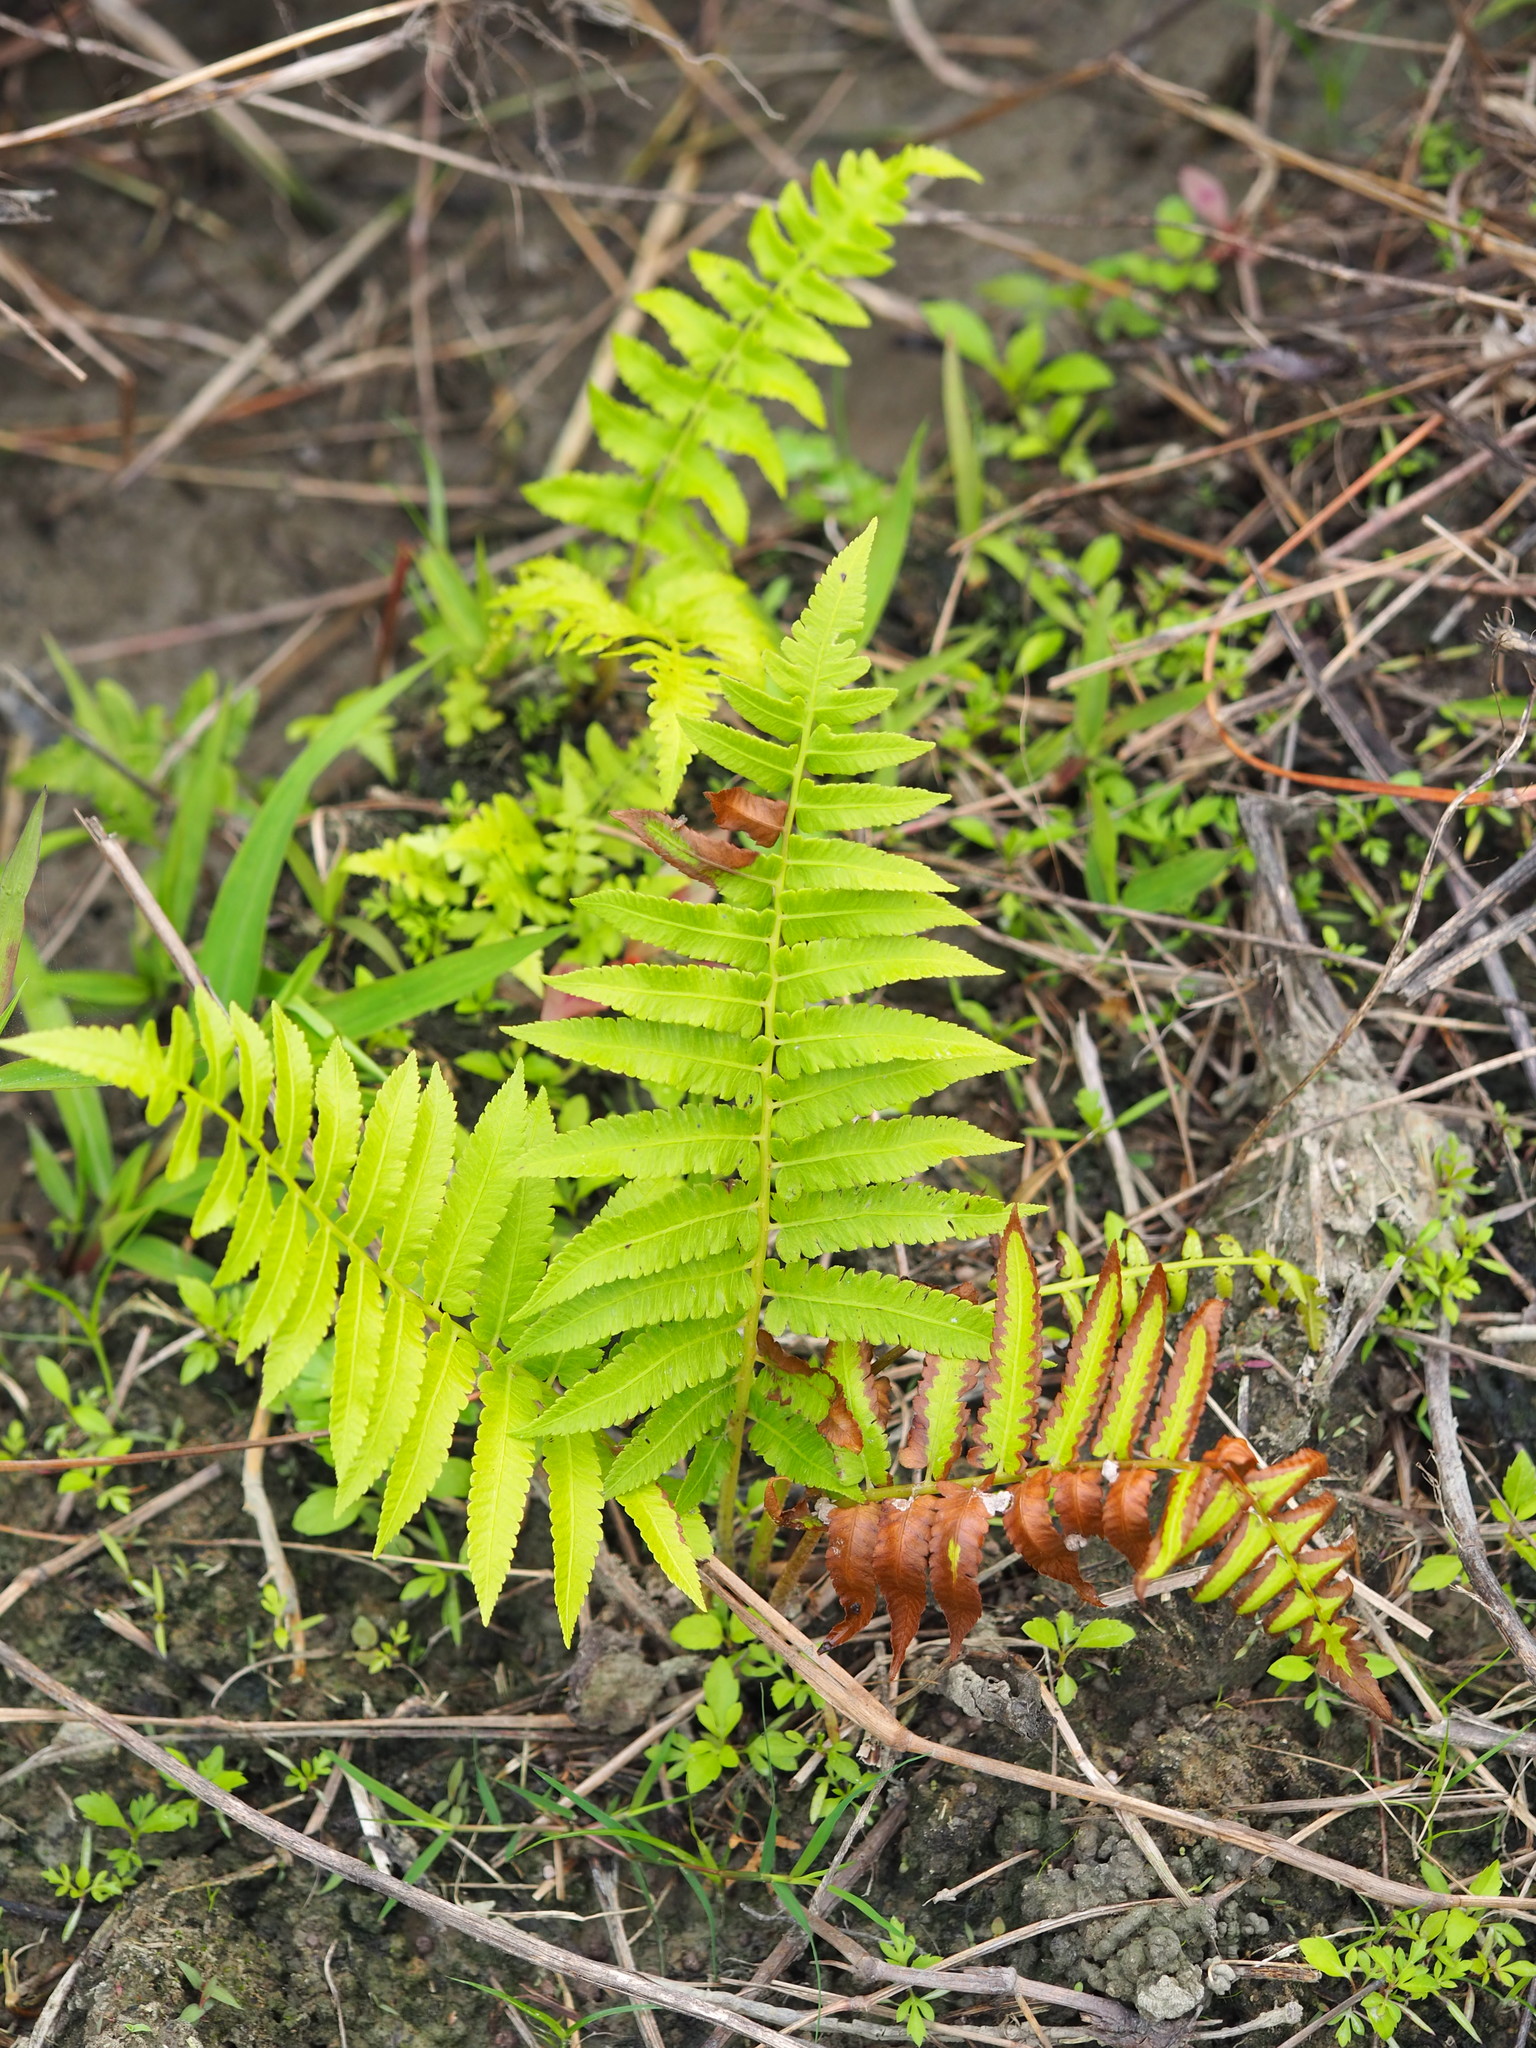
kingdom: Plantae
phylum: Tracheophyta
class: Polypodiopsida
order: Polypodiales
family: Athyriaceae
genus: Diplazium
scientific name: Diplazium esculentum
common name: Vegetable fern
